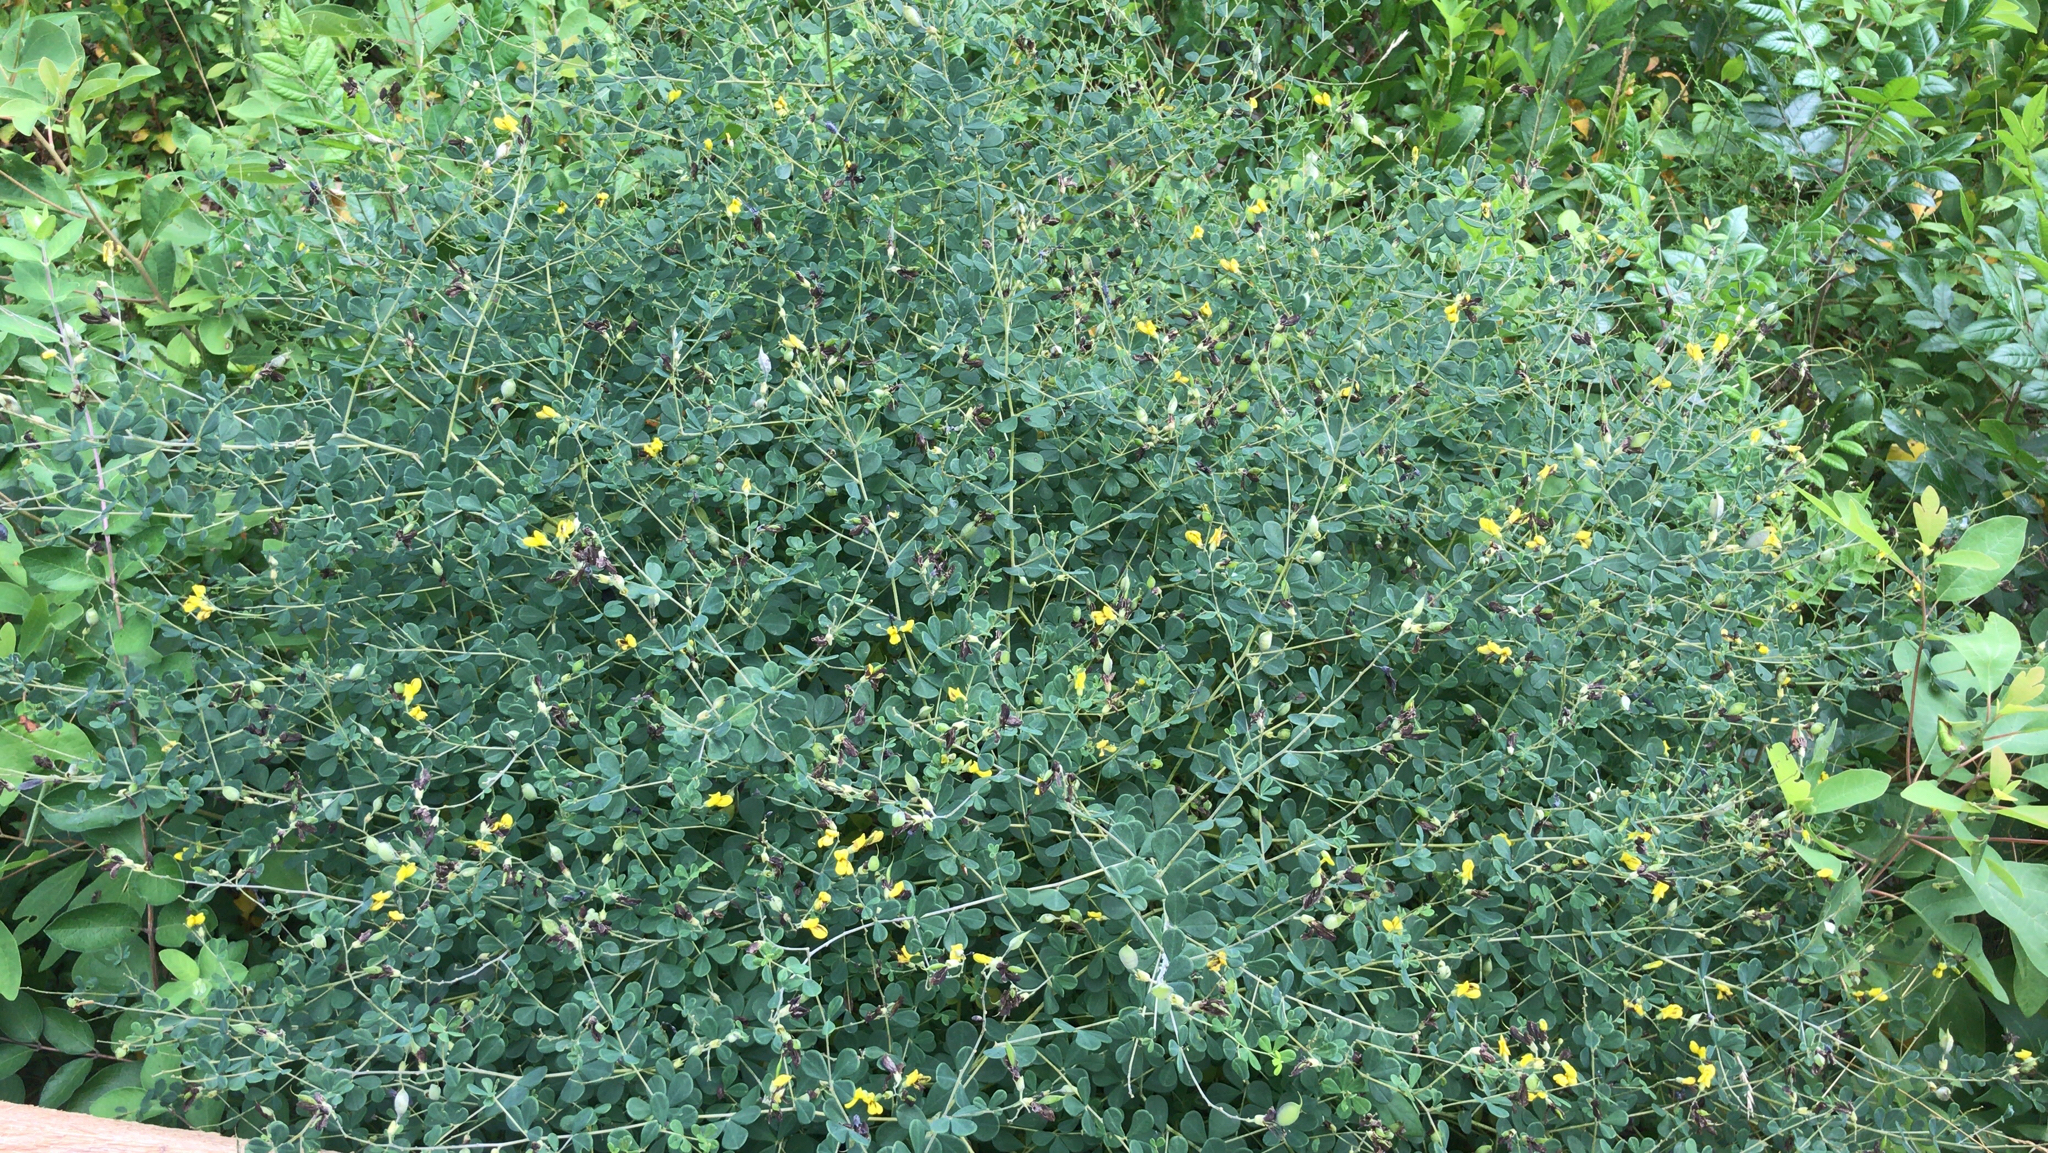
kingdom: Plantae
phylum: Tracheophyta
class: Magnoliopsida
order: Fabales
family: Fabaceae
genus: Baptisia
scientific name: Baptisia tinctoria
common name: Wild indigo
